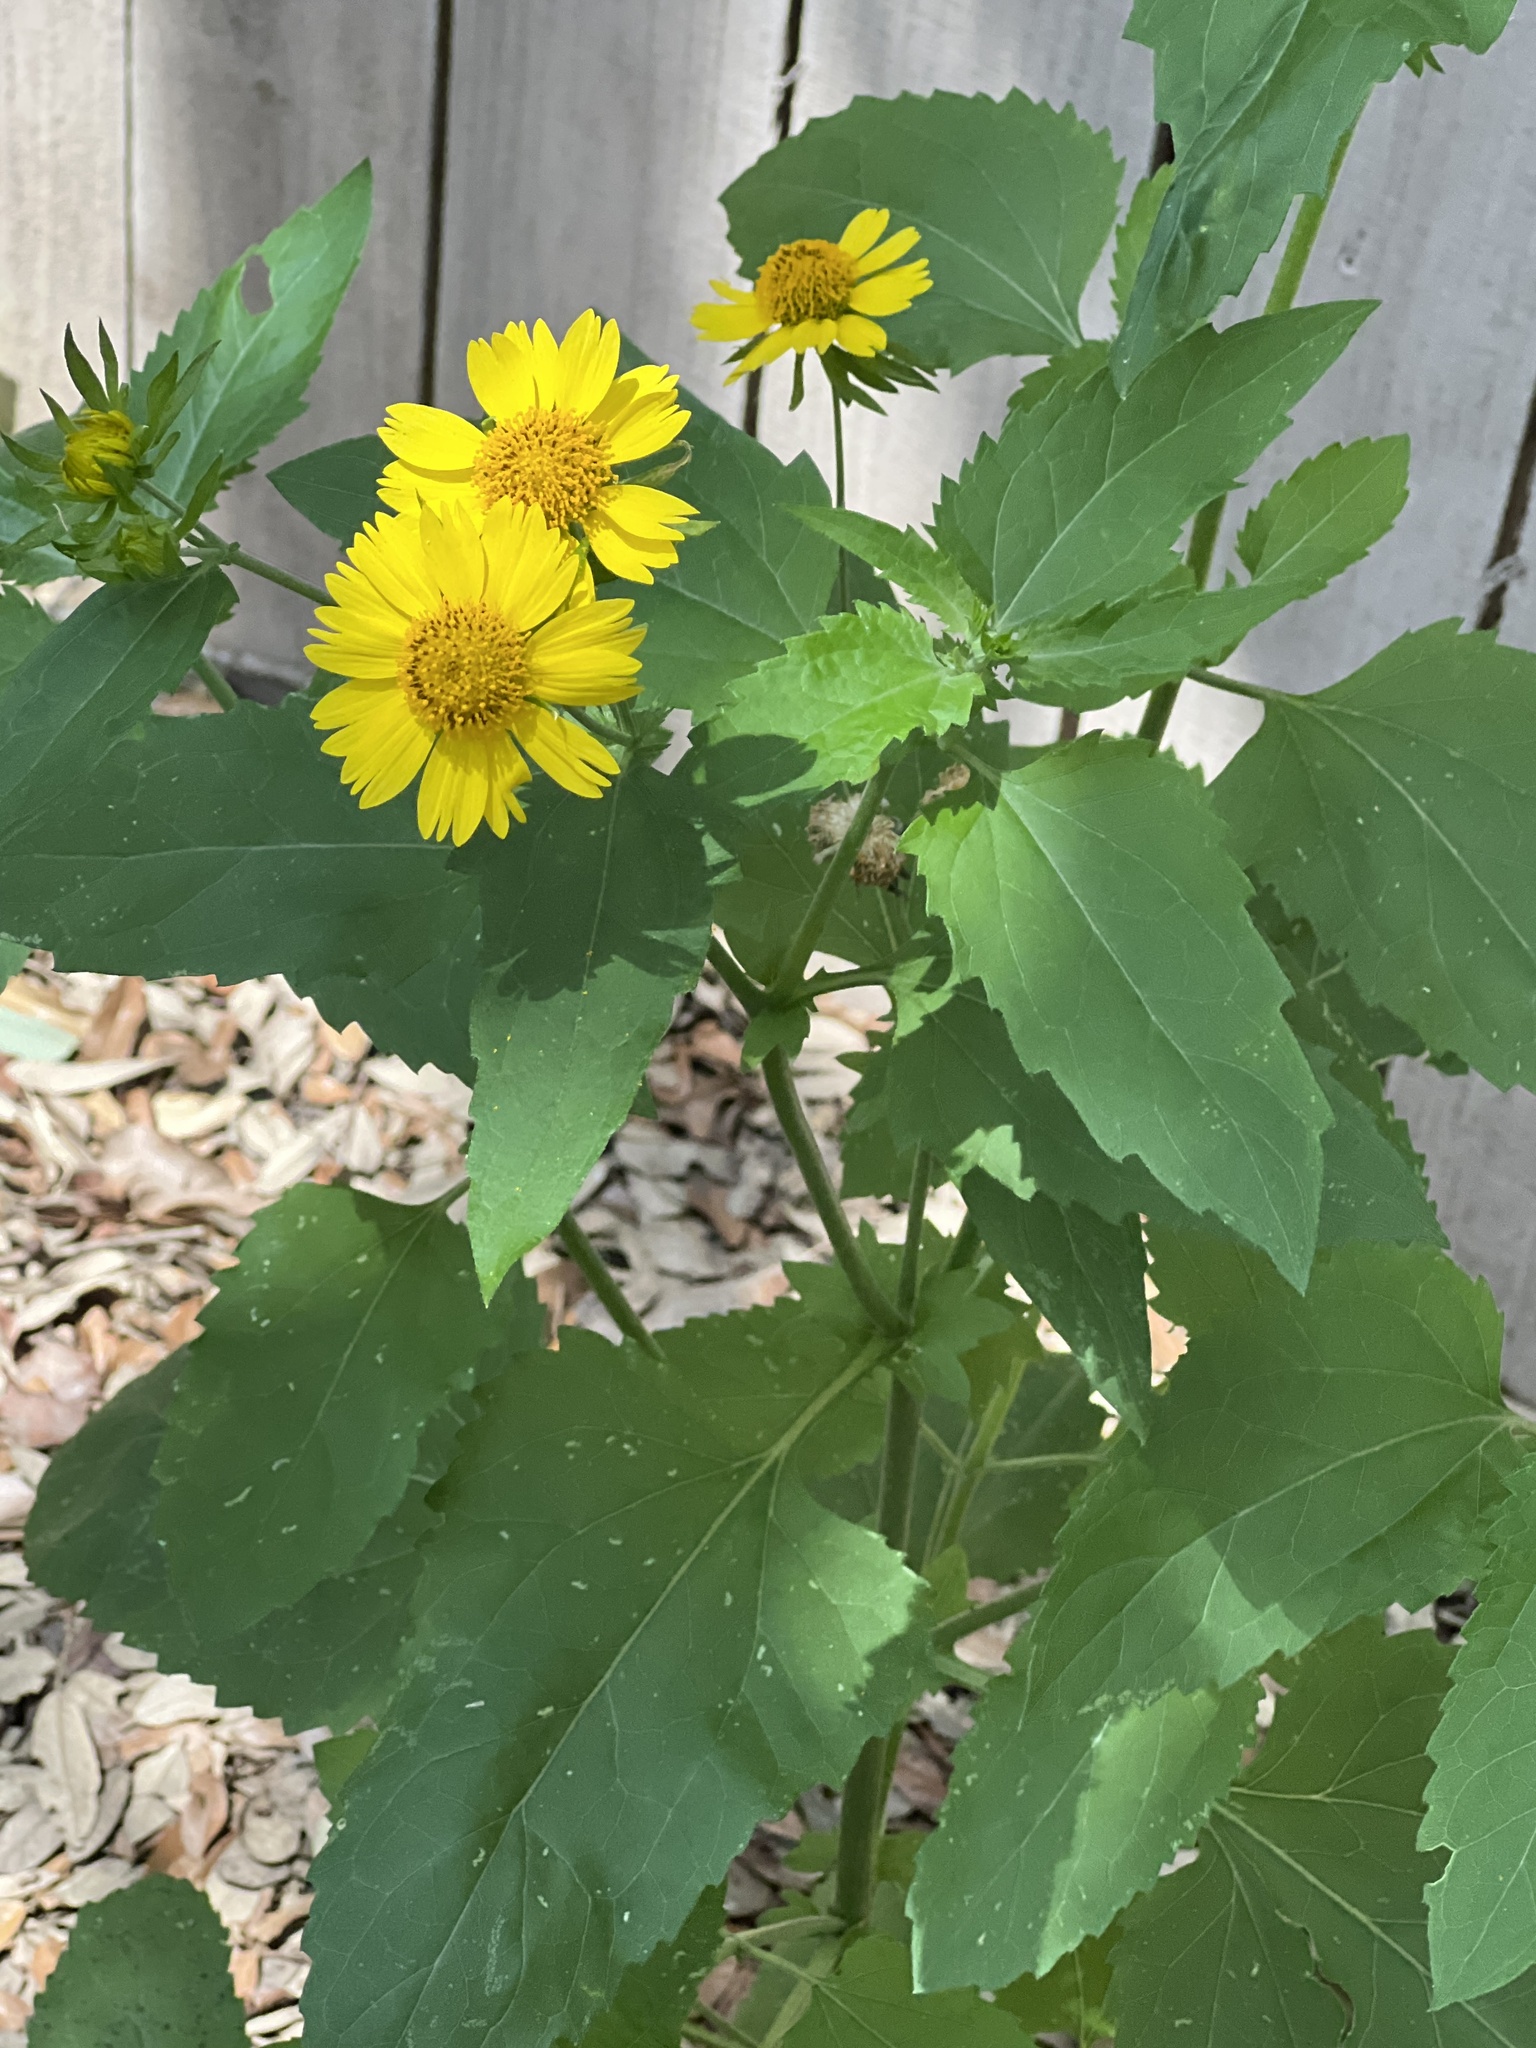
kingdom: Plantae
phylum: Tracheophyta
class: Magnoliopsida
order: Asterales
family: Asteraceae
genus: Verbesina
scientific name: Verbesina encelioides
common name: Golden crownbeard
